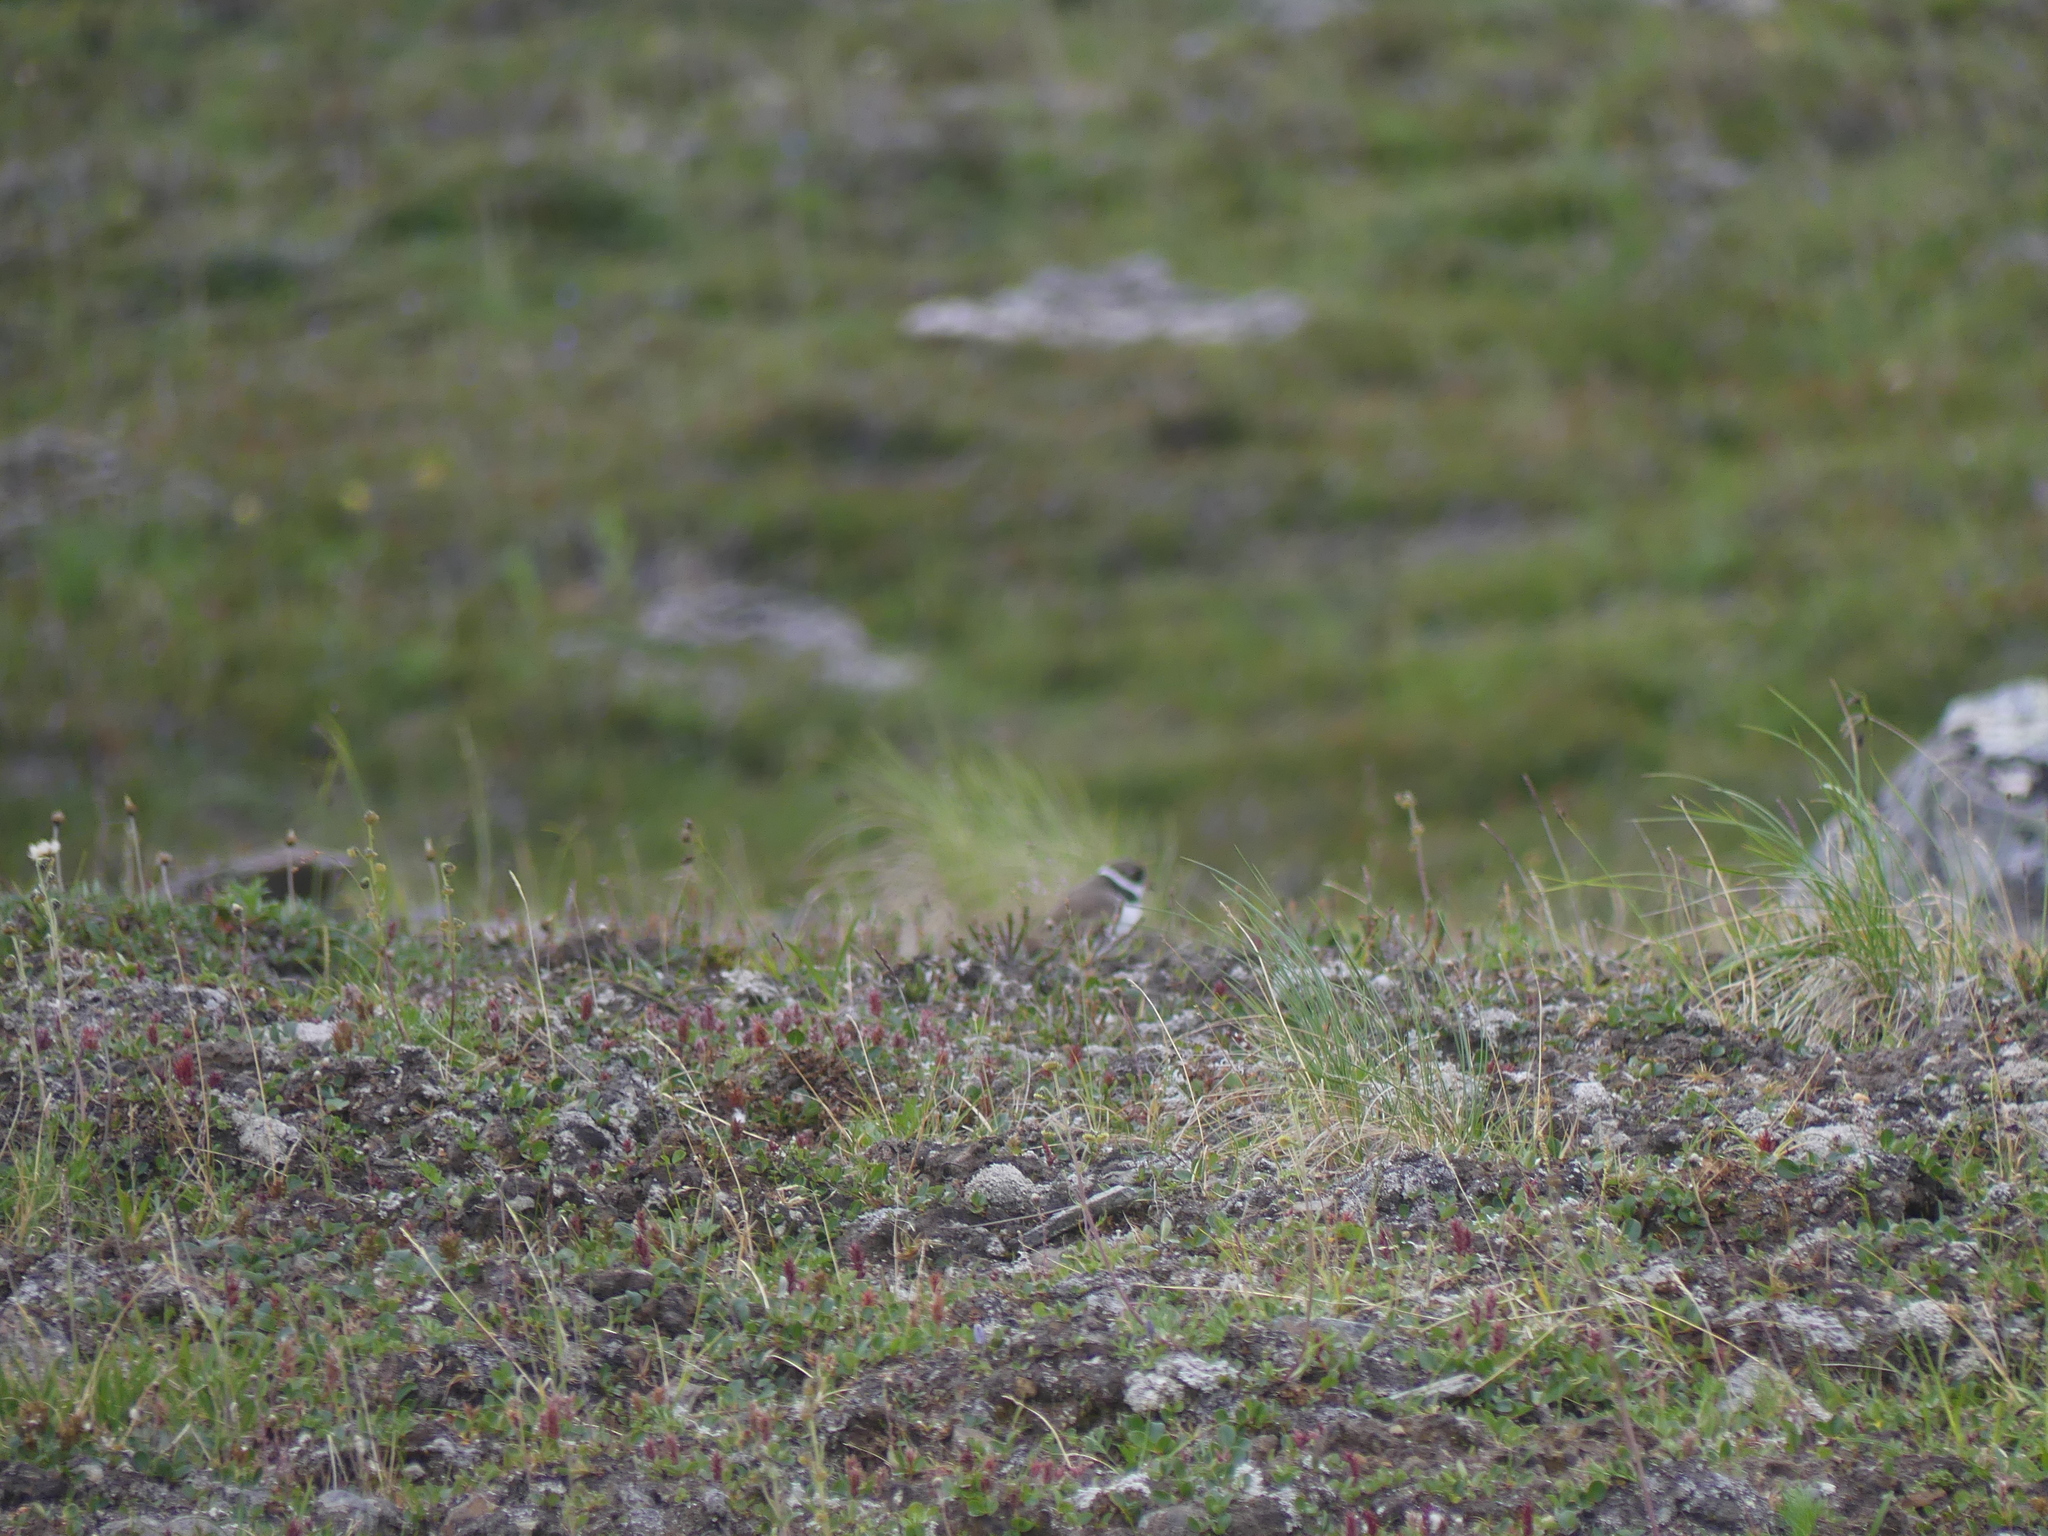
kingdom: Animalia
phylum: Chordata
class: Aves
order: Charadriiformes
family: Charadriidae
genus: Charadrius
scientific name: Charadrius semipalmatus
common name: Semipalmated plover
